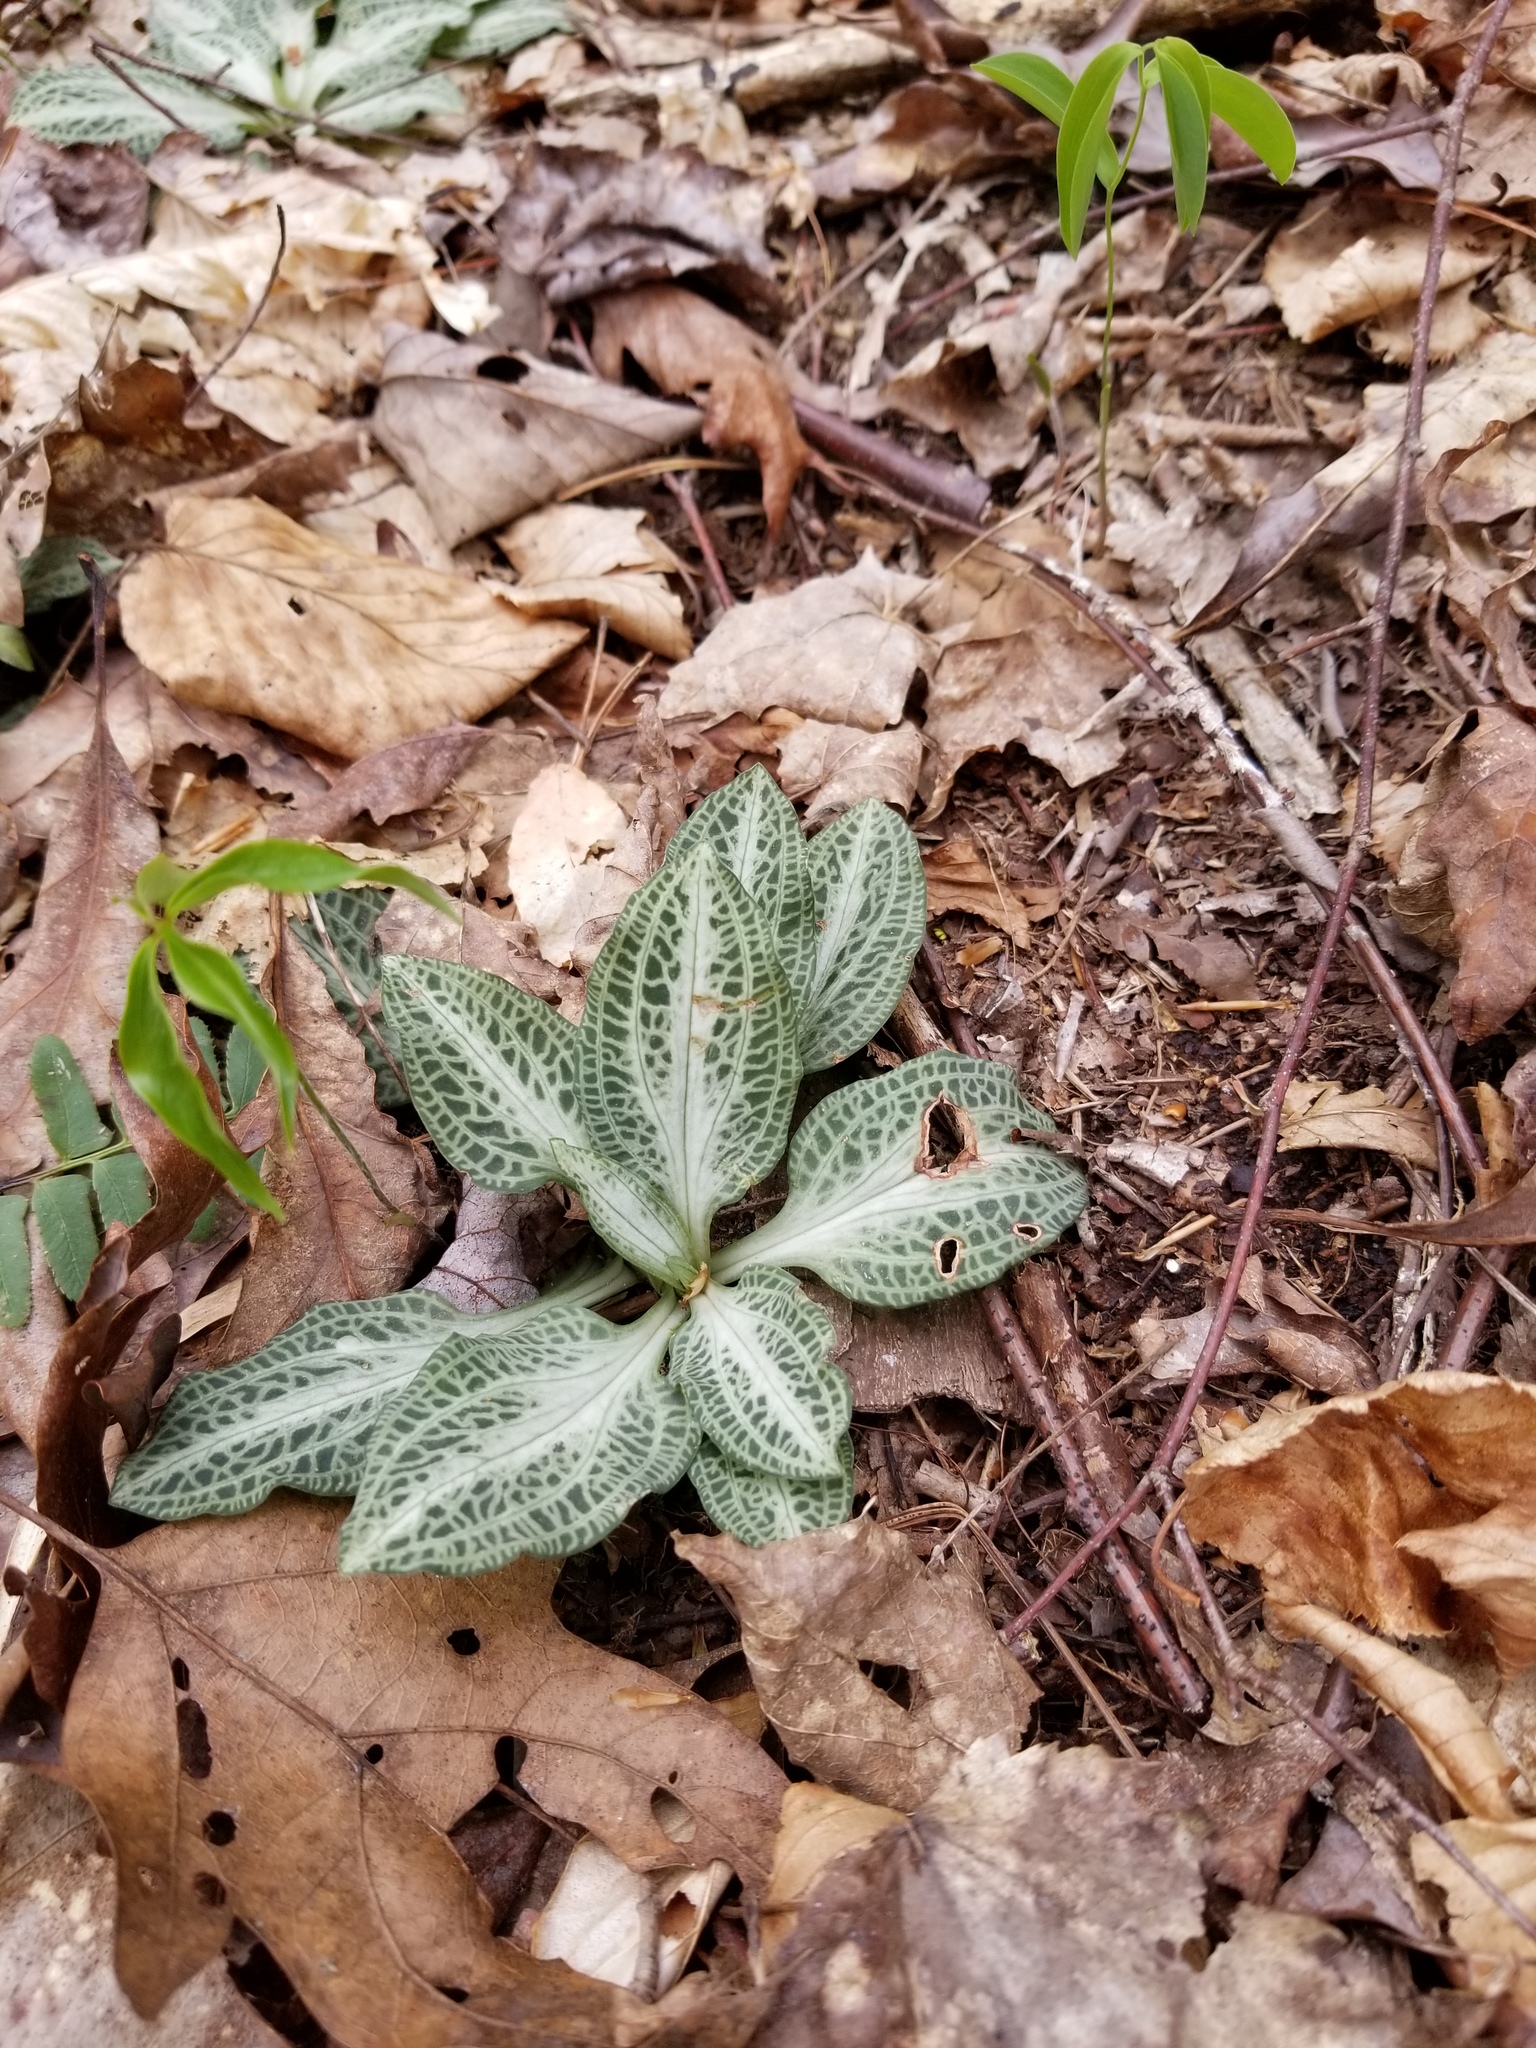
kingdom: Plantae
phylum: Tracheophyta
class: Liliopsida
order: Asparagales
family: Orchidaceae
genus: Goodyera
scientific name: Goodyera pubescens
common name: Downy rattlesnake-plantain
